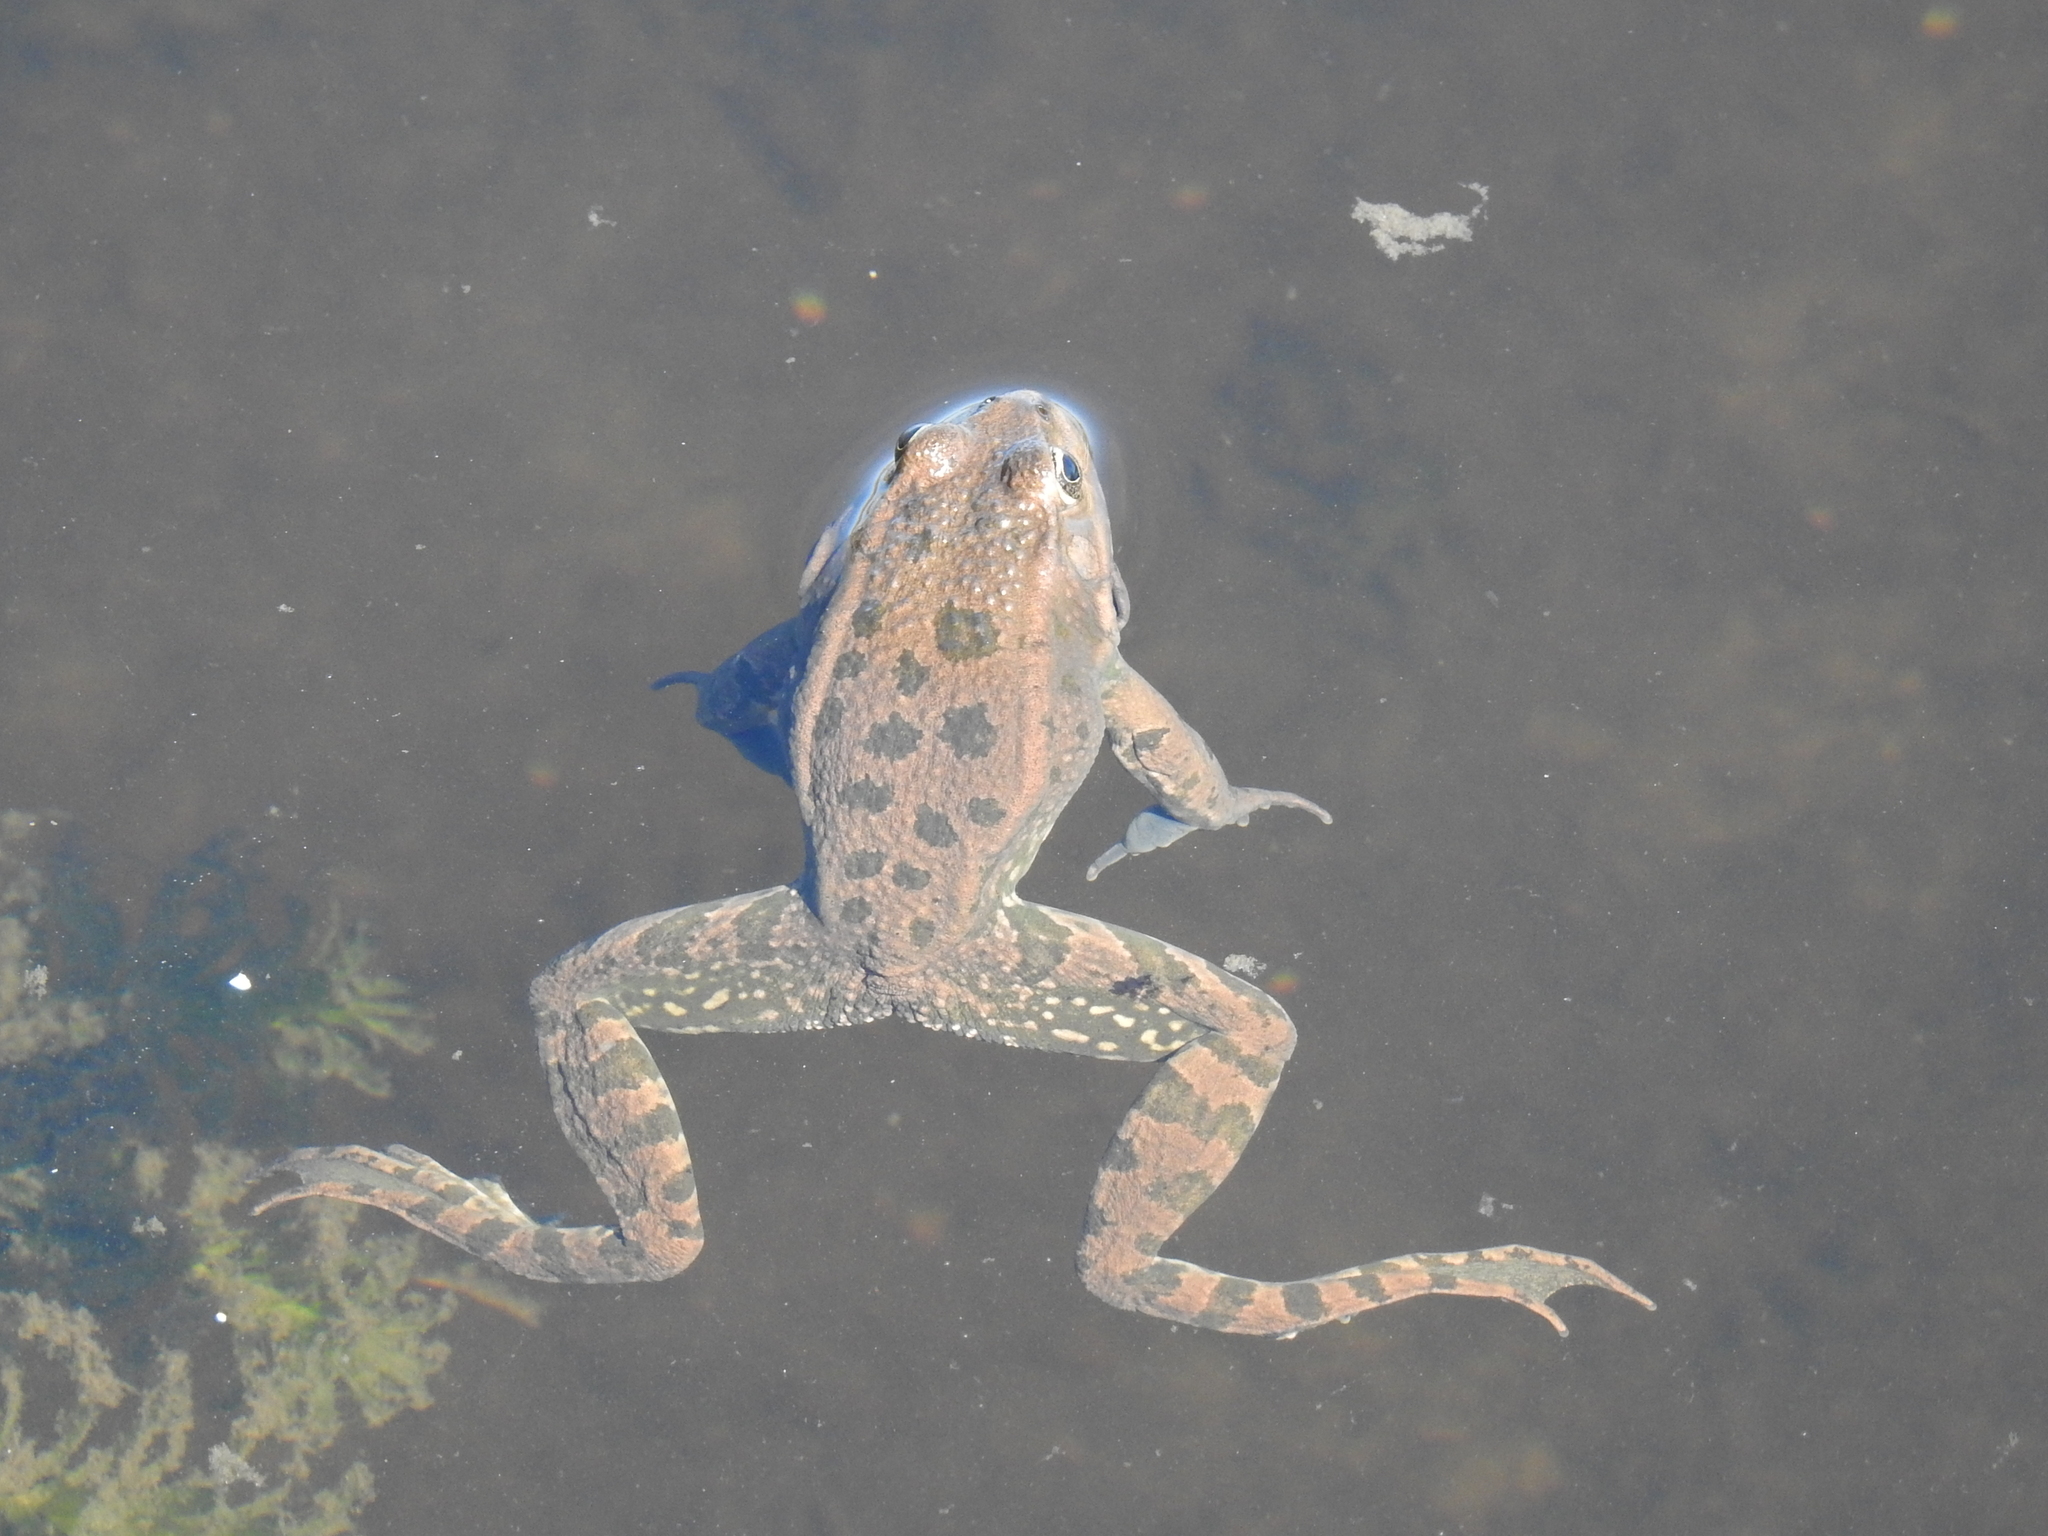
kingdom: Animalia
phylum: Chordata
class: Amphibia
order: Anura
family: Ranidae
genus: Pelophylax
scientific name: Pelophylax ridibundus
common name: Marsh frog
